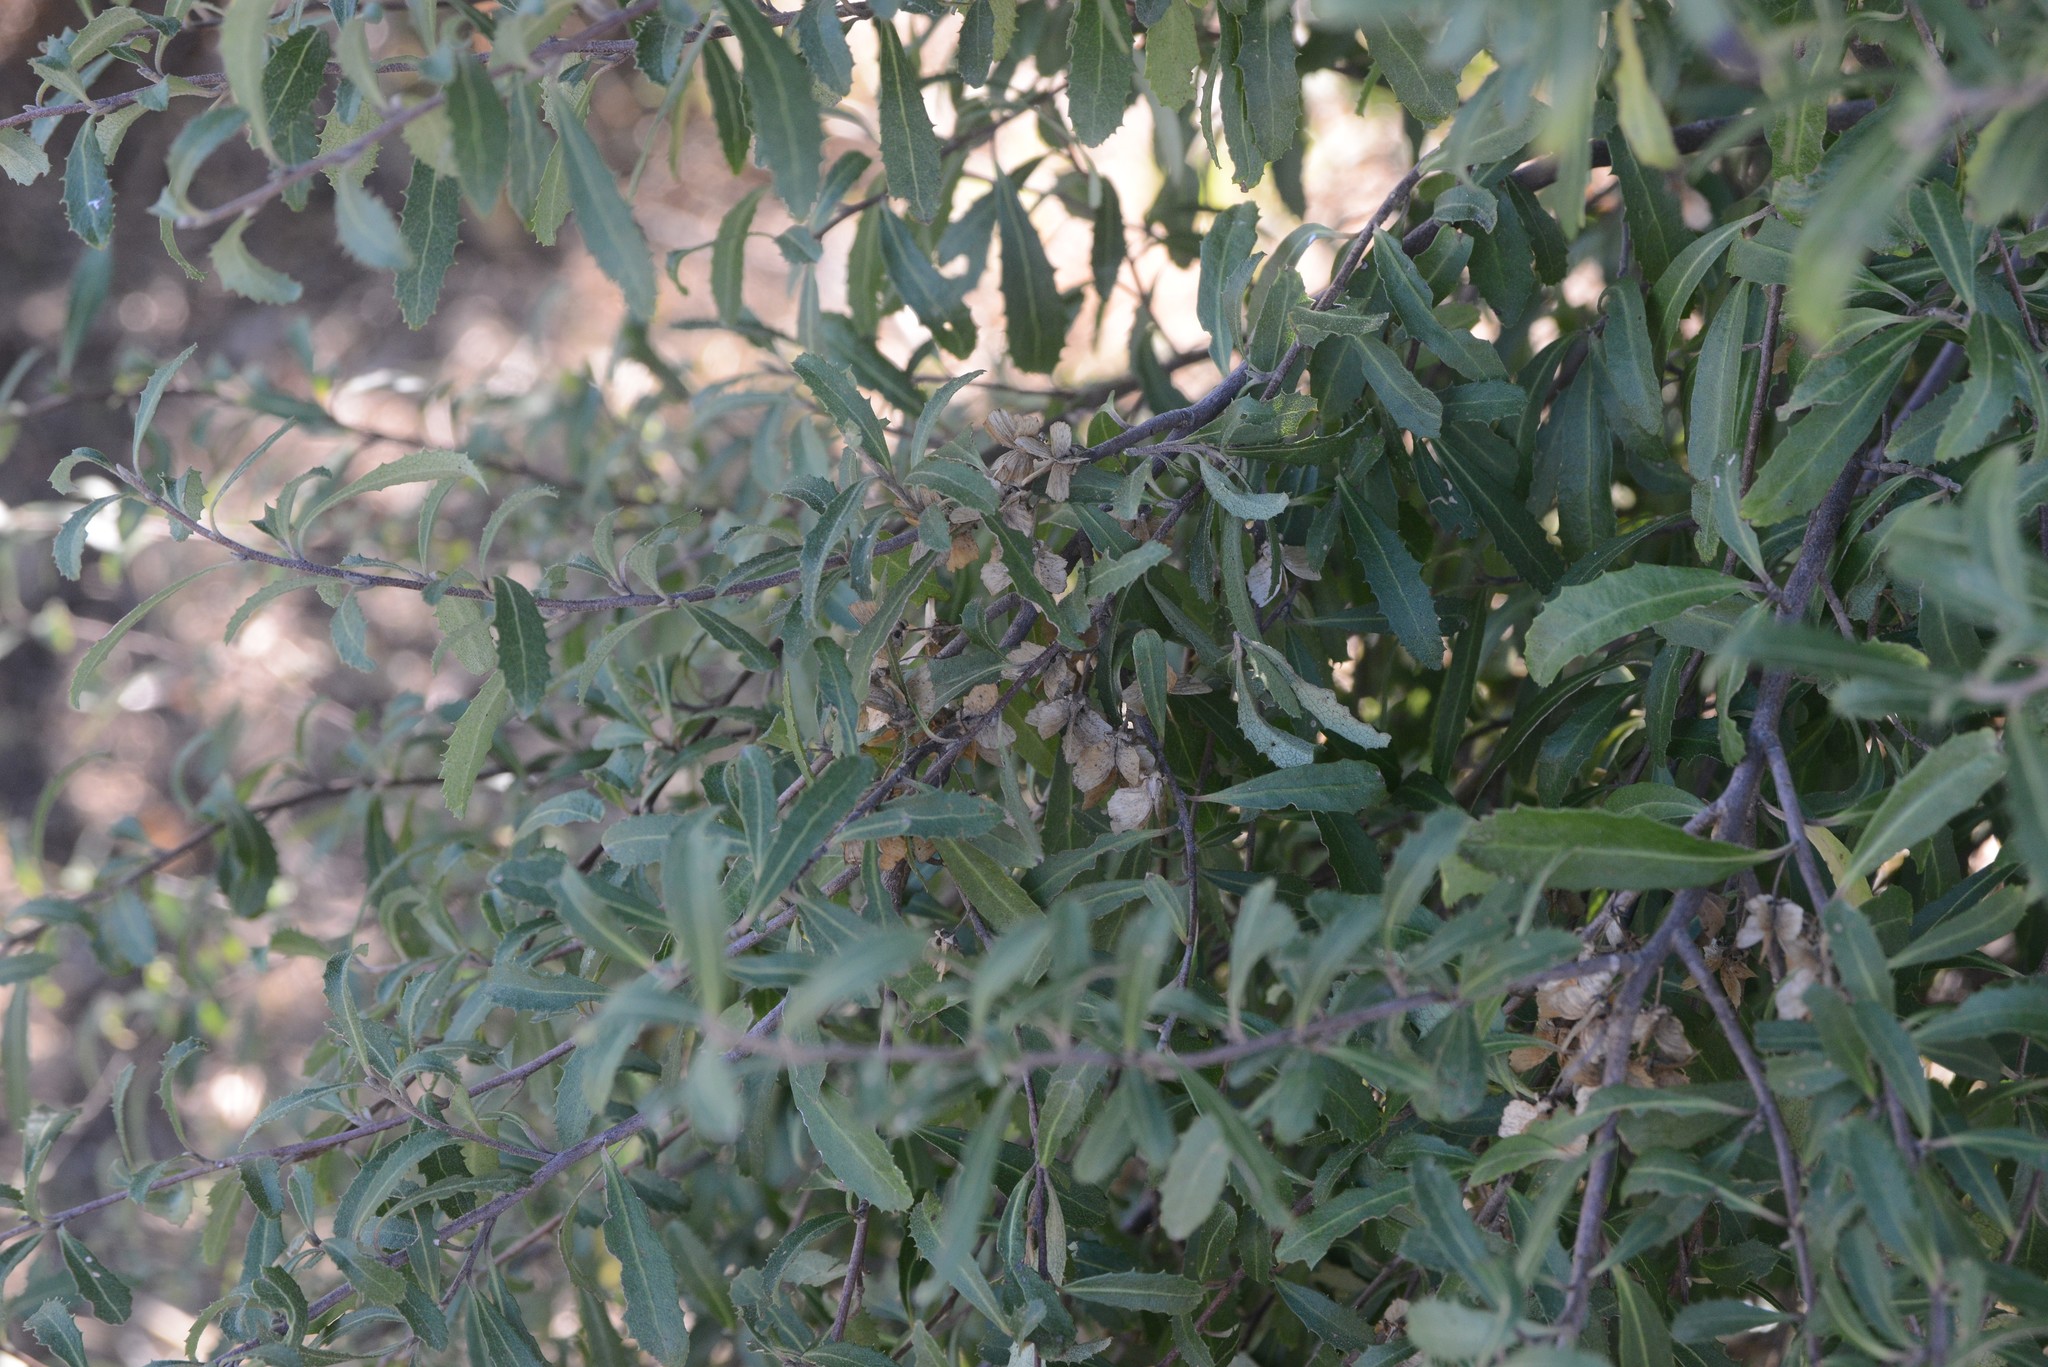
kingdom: Plantae
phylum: Tracheophyta
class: Magnoliopsida
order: Malvales
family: Malvaceae
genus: Hoheria
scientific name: Hoheria angustifolia
